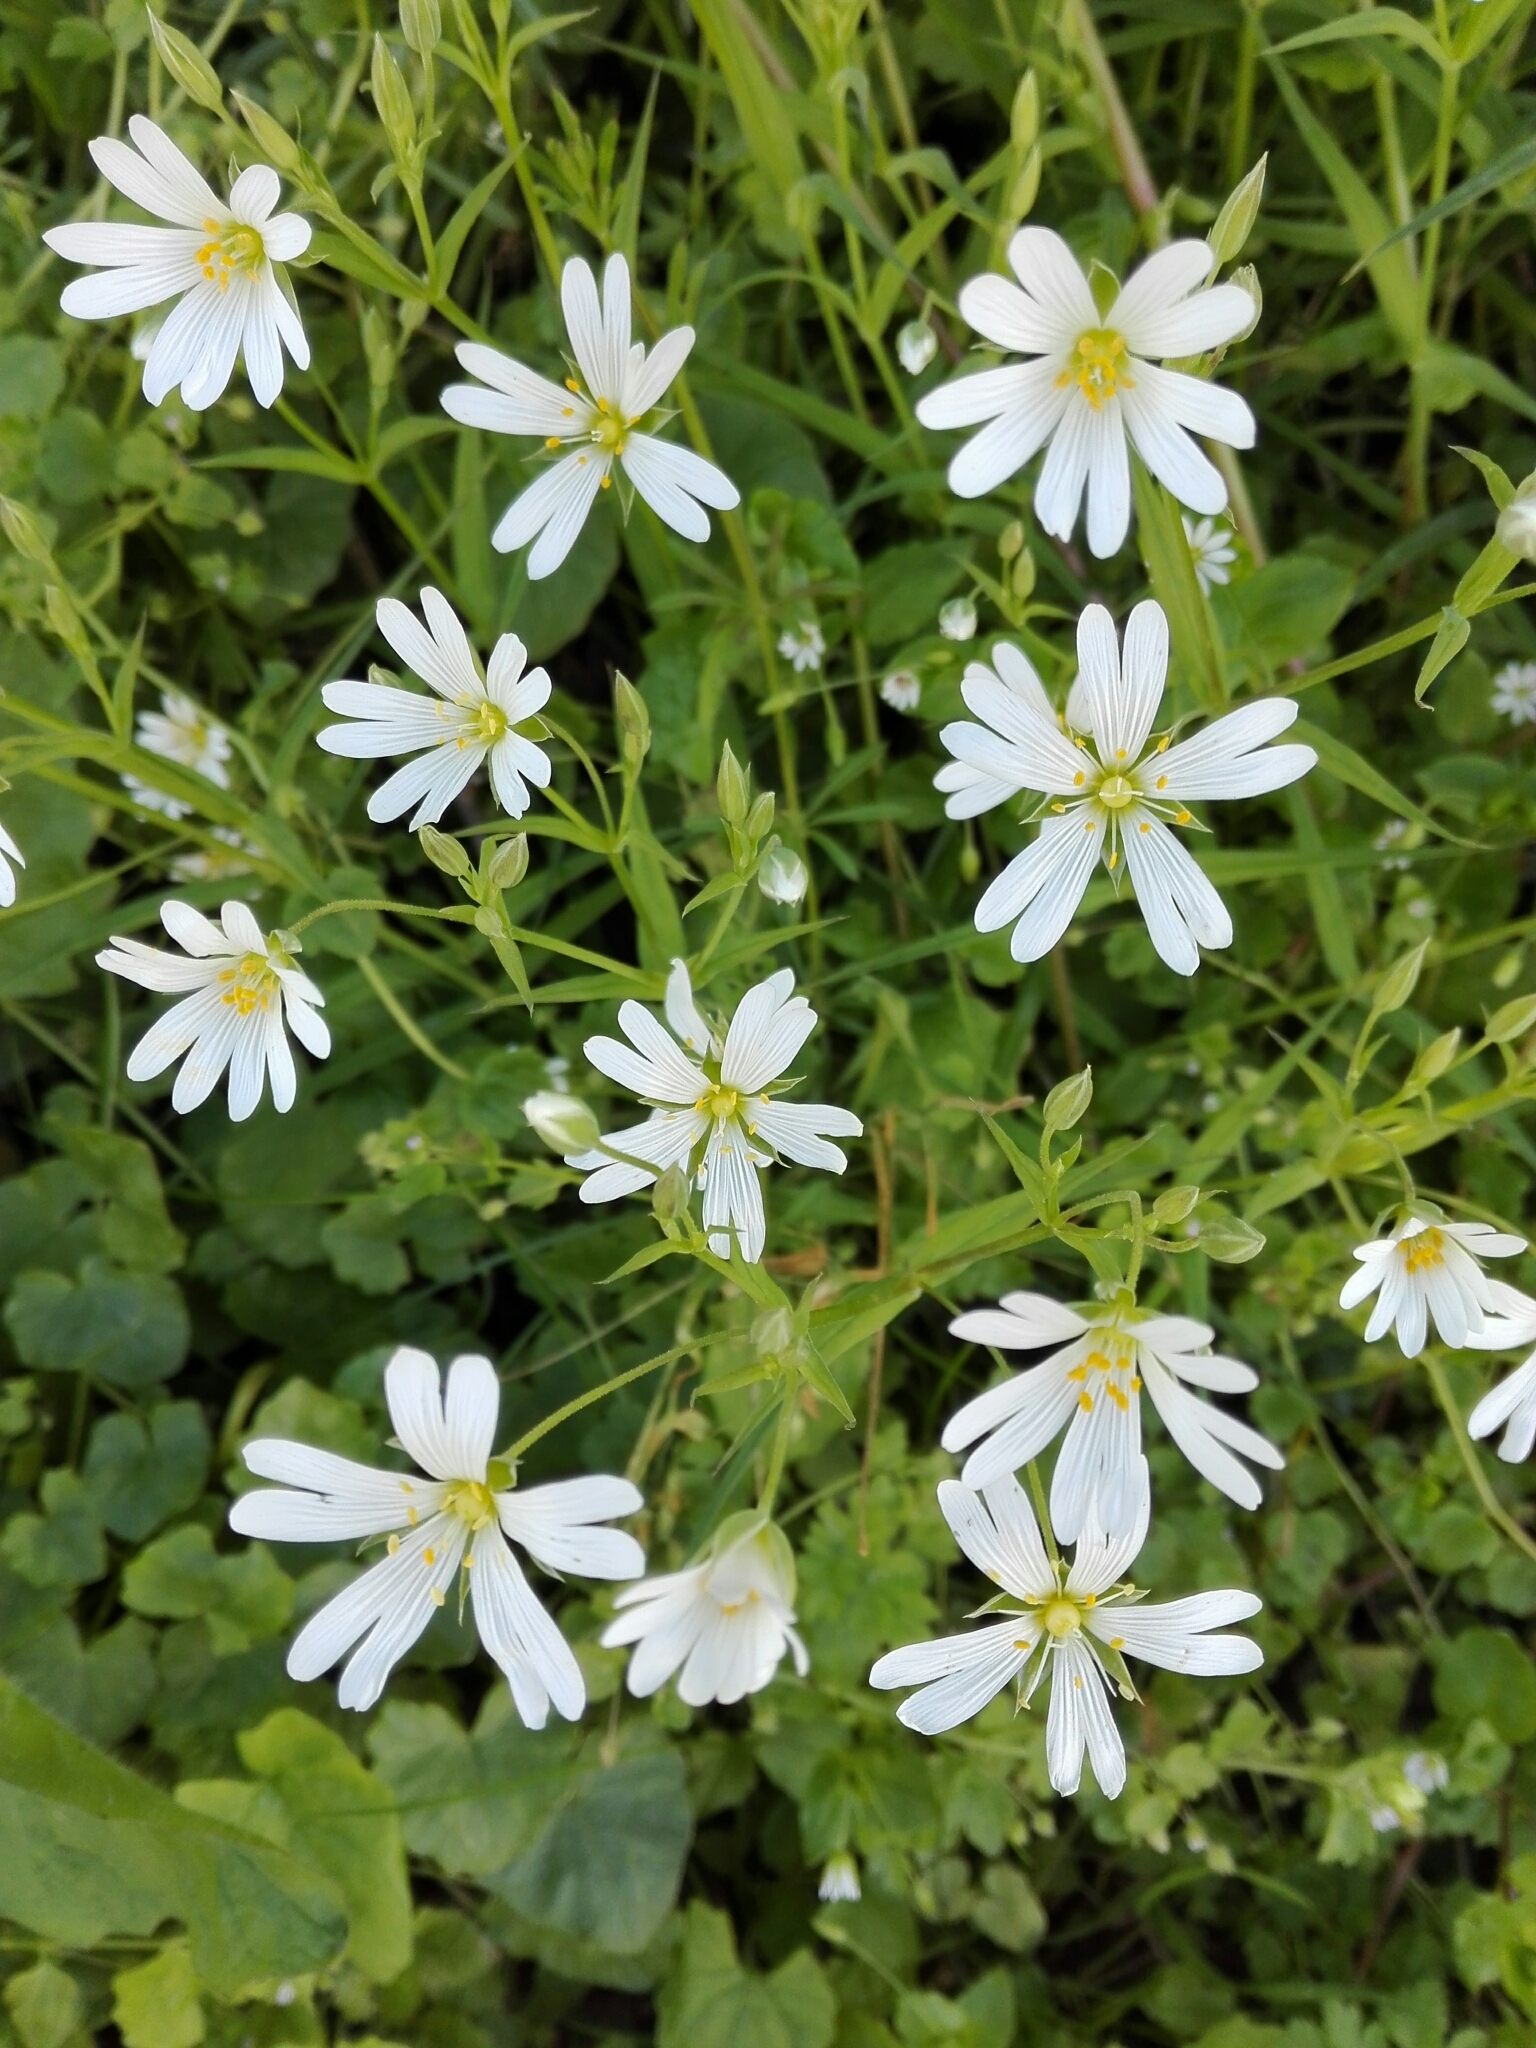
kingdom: Plantae
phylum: Tracheophyta
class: Magnoliopsida
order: Caryophyllales
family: Caryophyllaceae
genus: Rabelera
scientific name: Rabelera holostea
